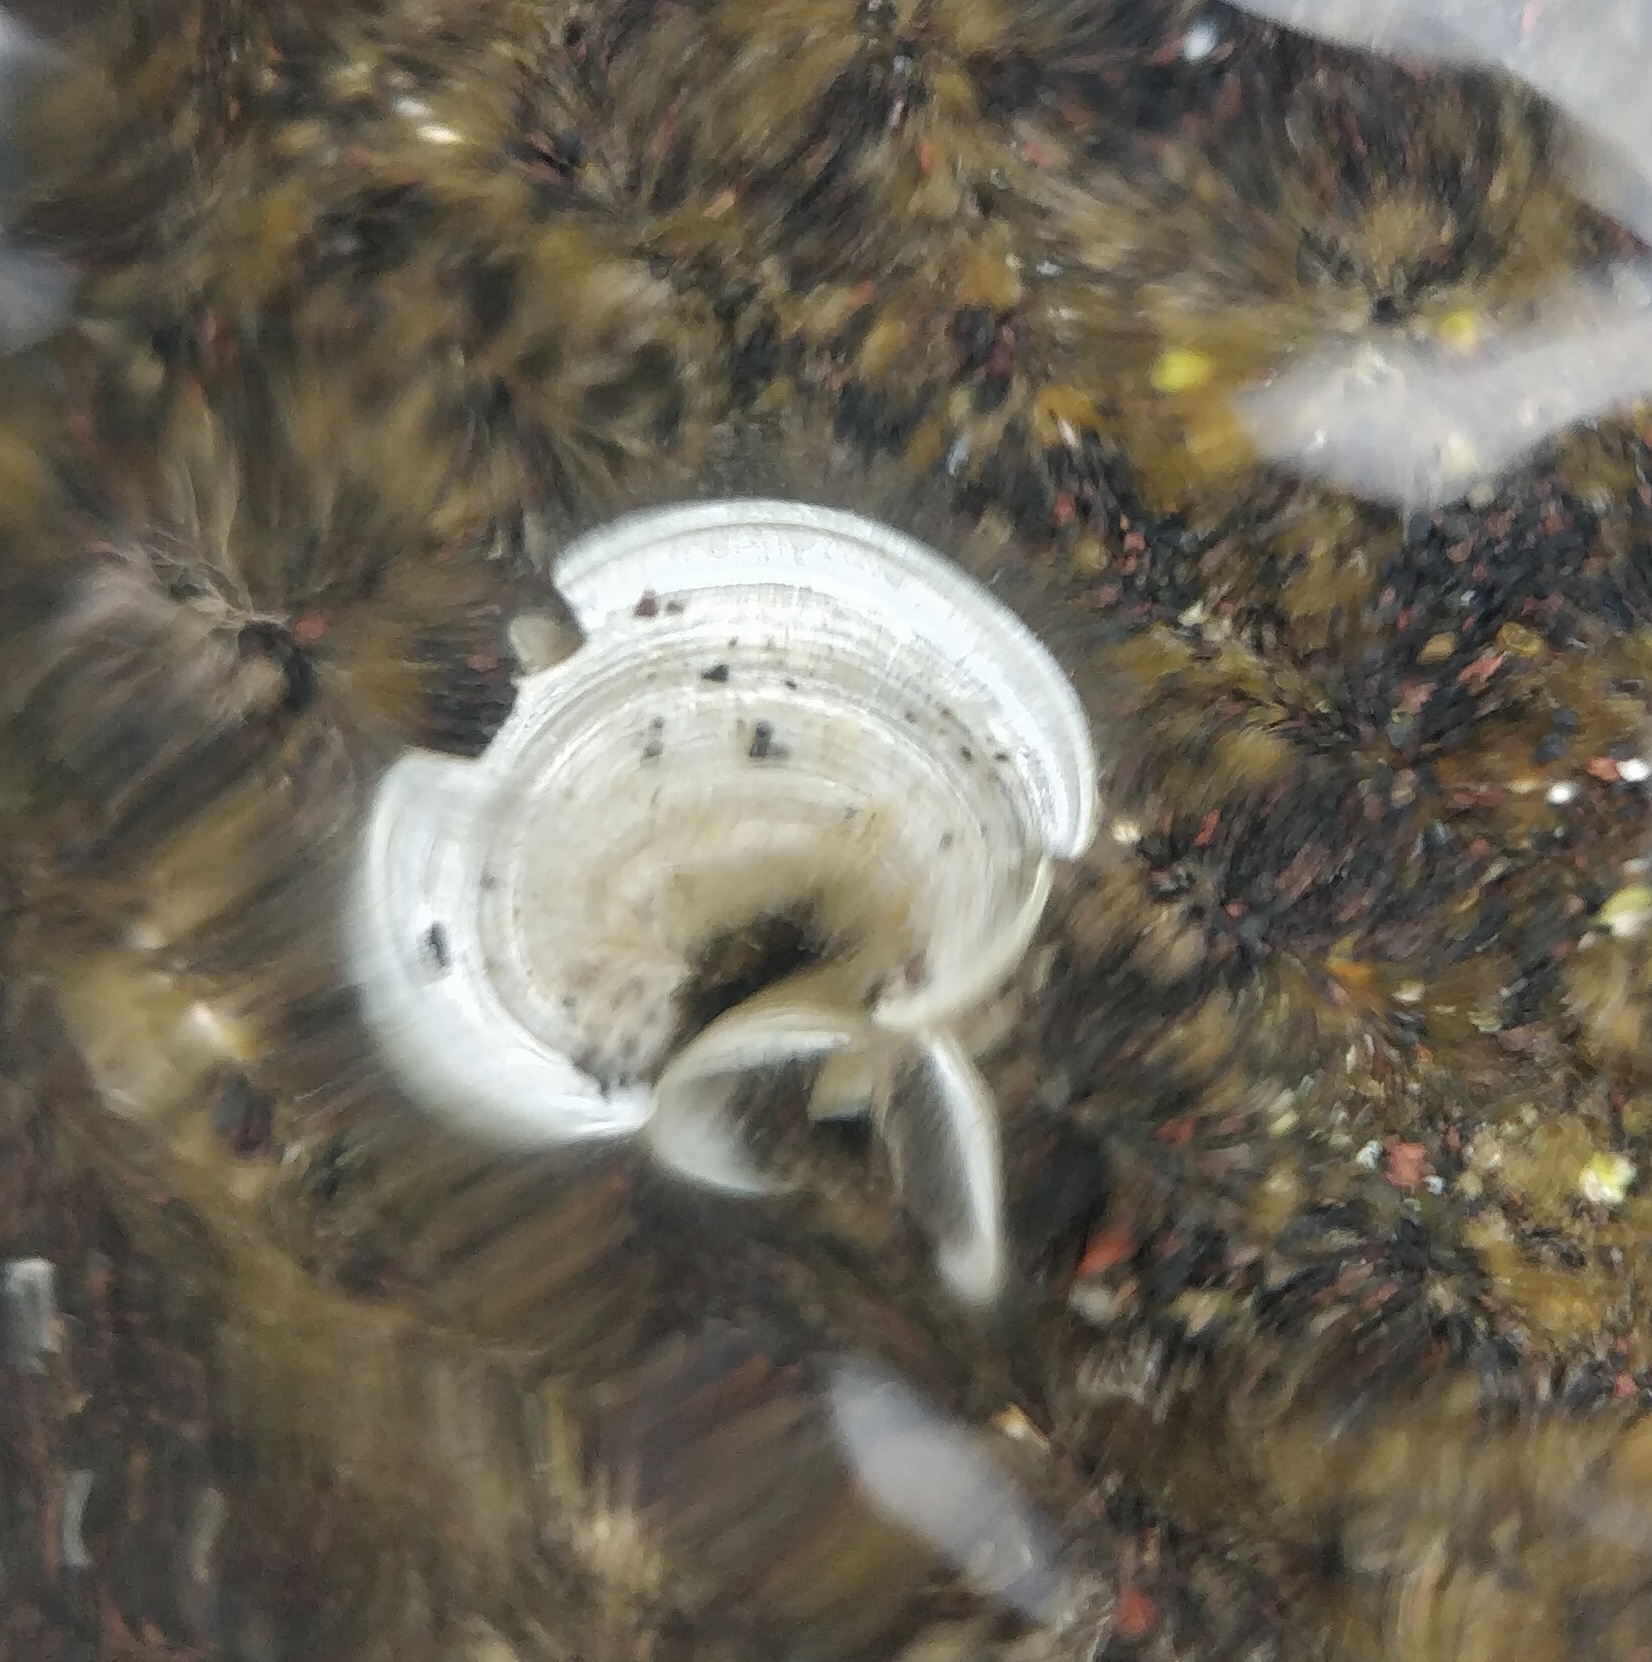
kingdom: Chromista
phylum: Ochrophyta
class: Phaeophyceae
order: Dictyotales
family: Dictyotaceae
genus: Padina
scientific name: Padina pavonica
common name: Turkey feather alga
